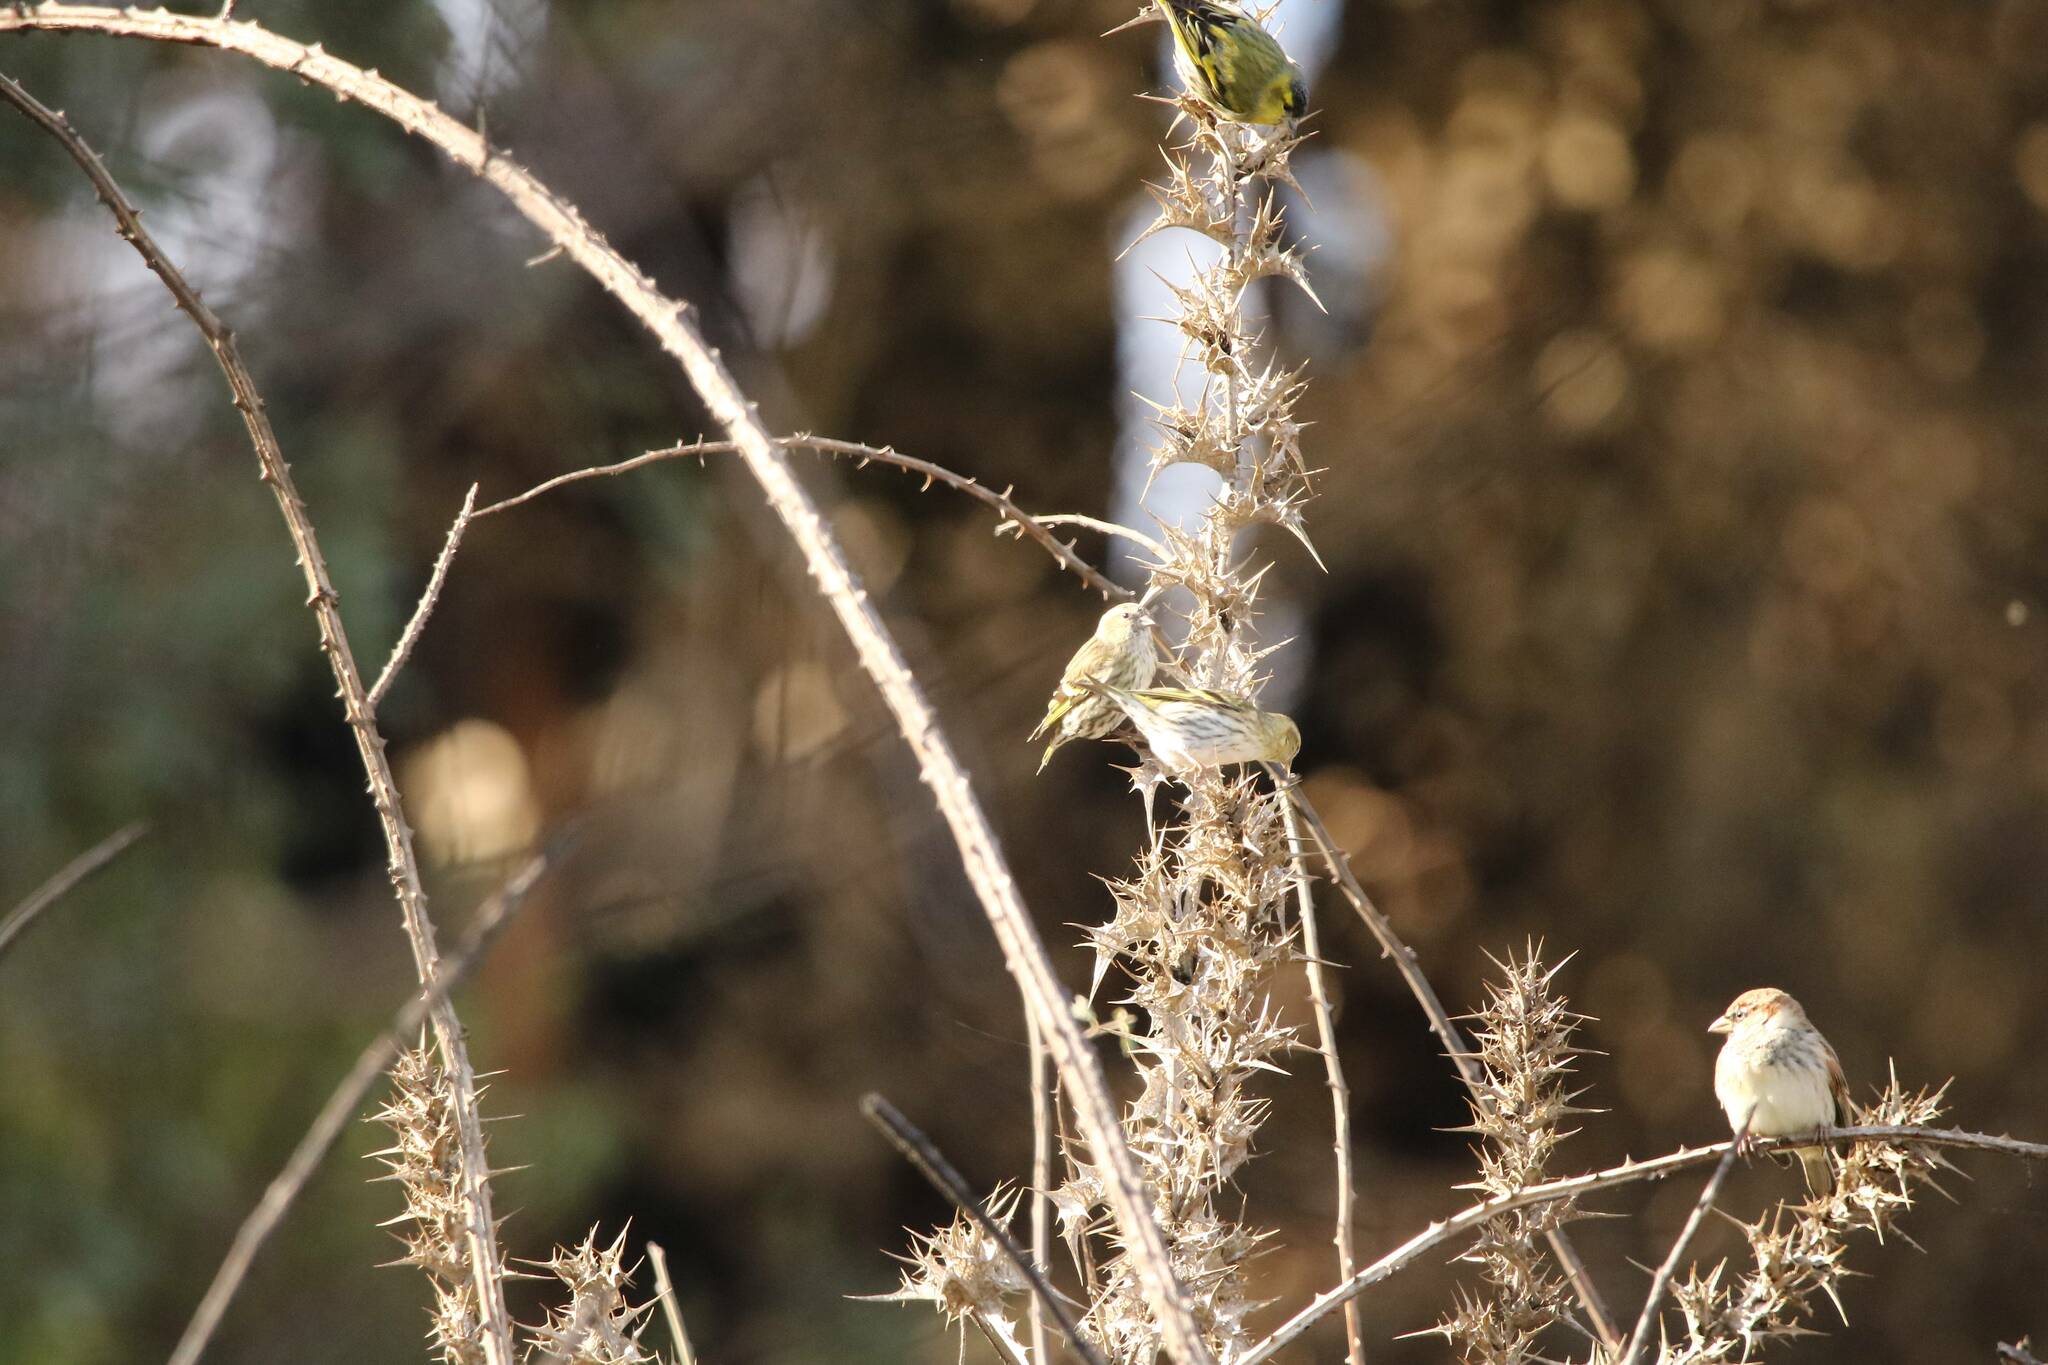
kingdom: Animalia
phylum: Chordata
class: Aves
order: Passeriformes
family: Fringillidae
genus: Spinus
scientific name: Spinus spinus
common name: Eurasian siskin
